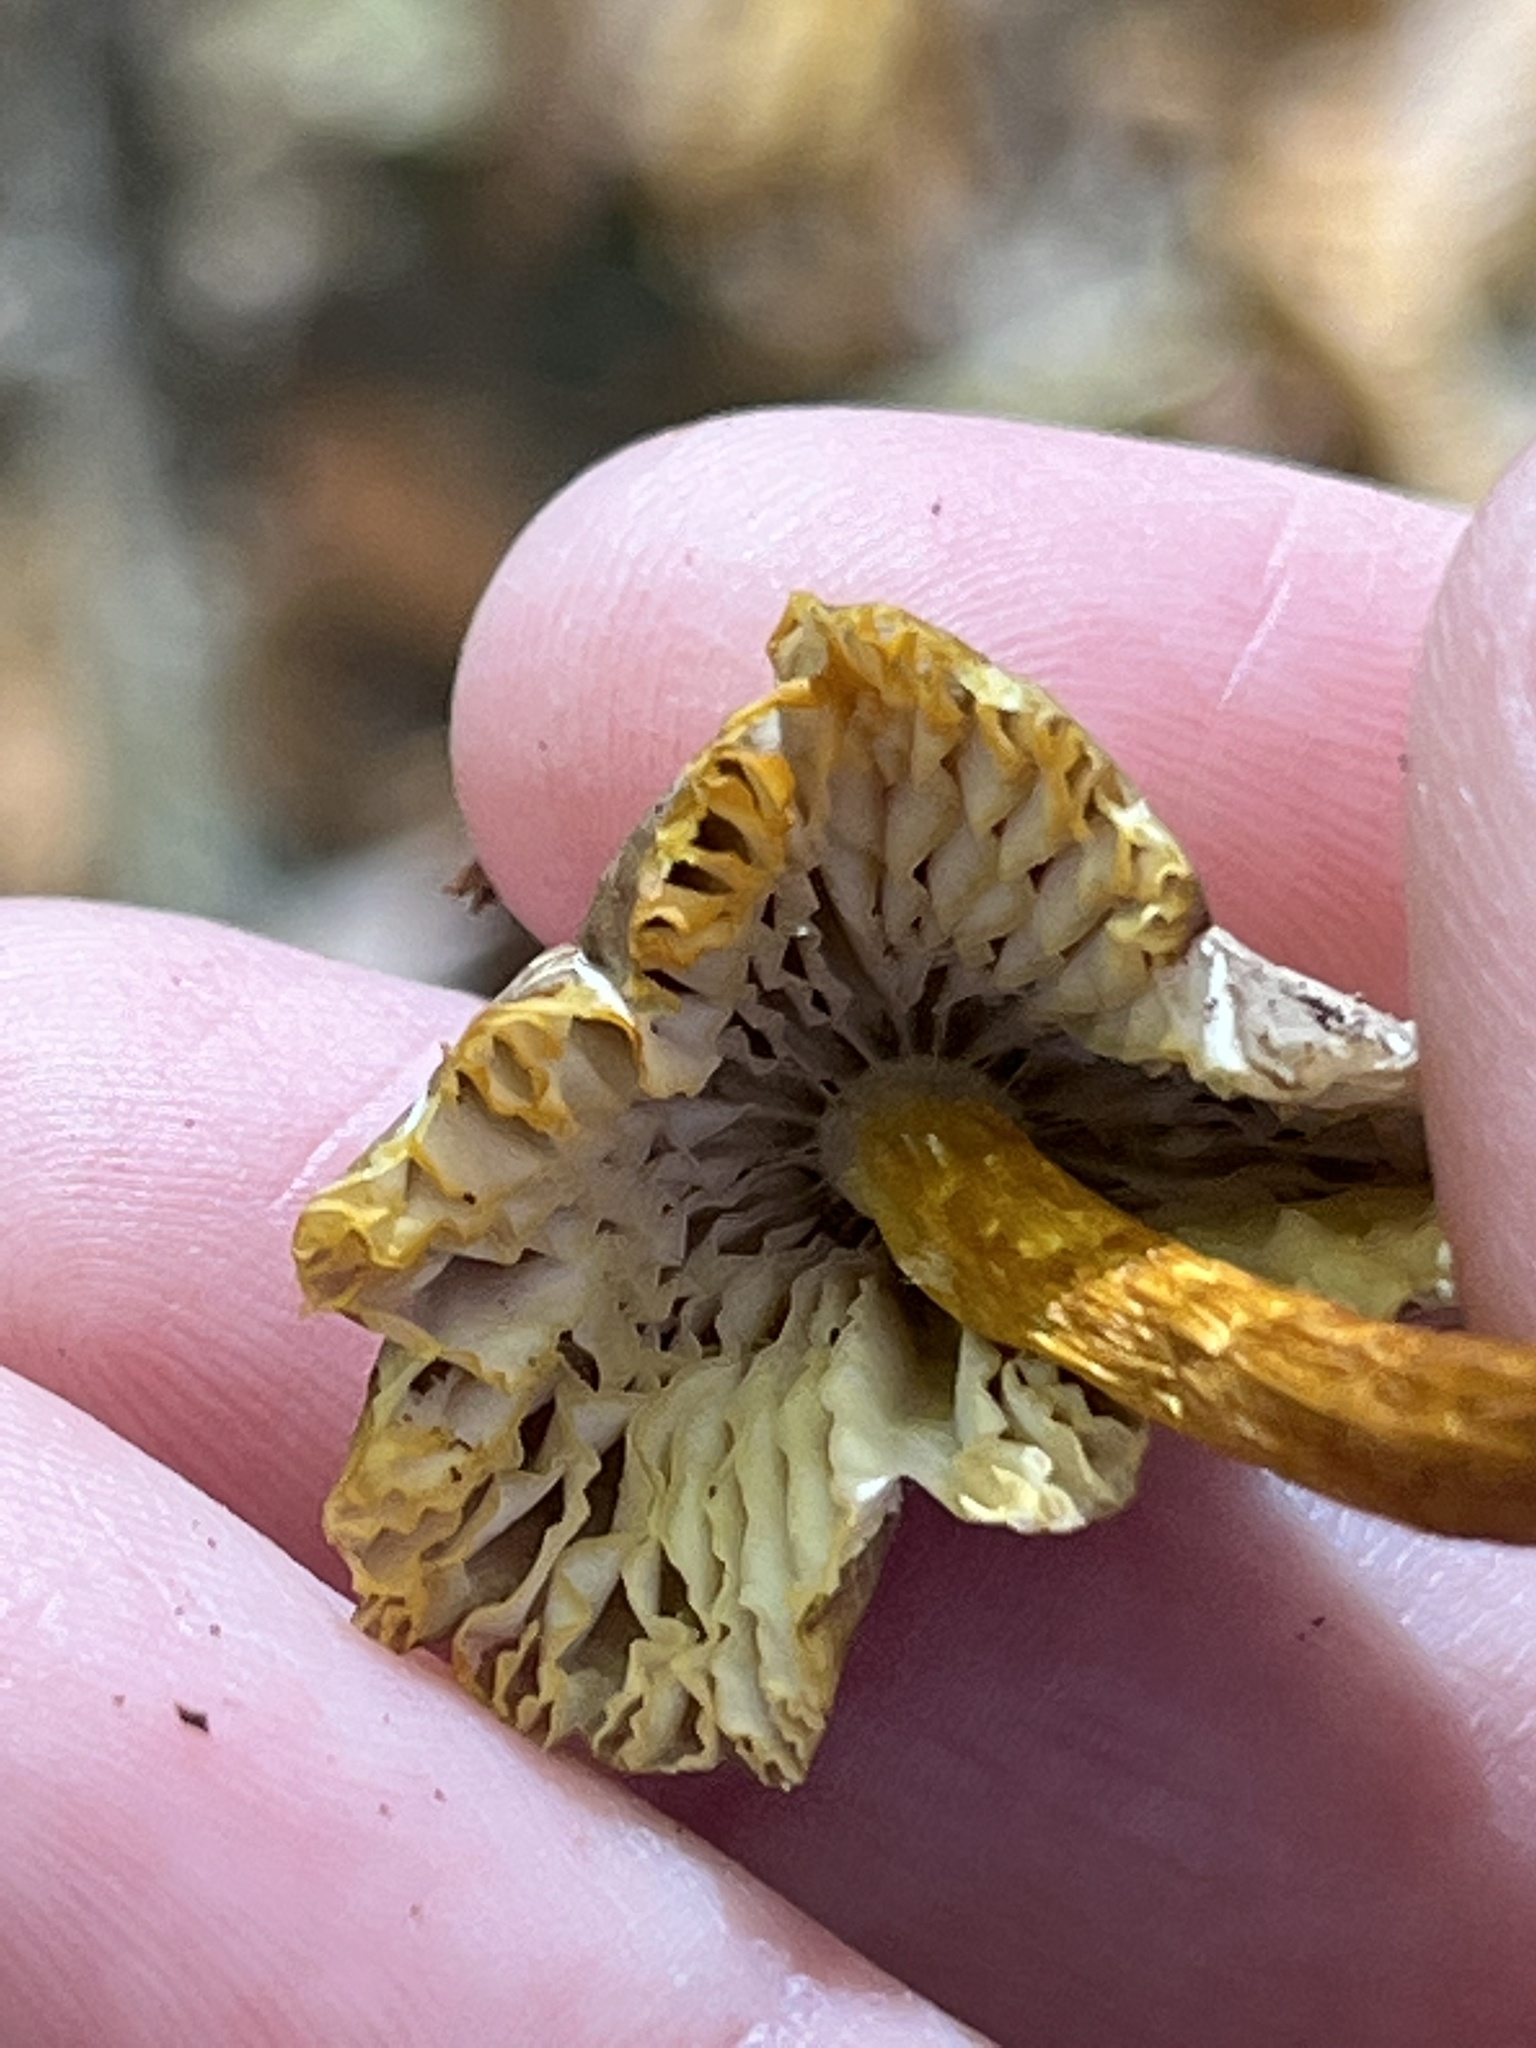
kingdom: Fungi
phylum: Basidiomycota
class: Agaricomycetes
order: Agaricales
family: Mycenaceae
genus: Mycena
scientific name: Mycena inclinata
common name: Clustered bonnet
